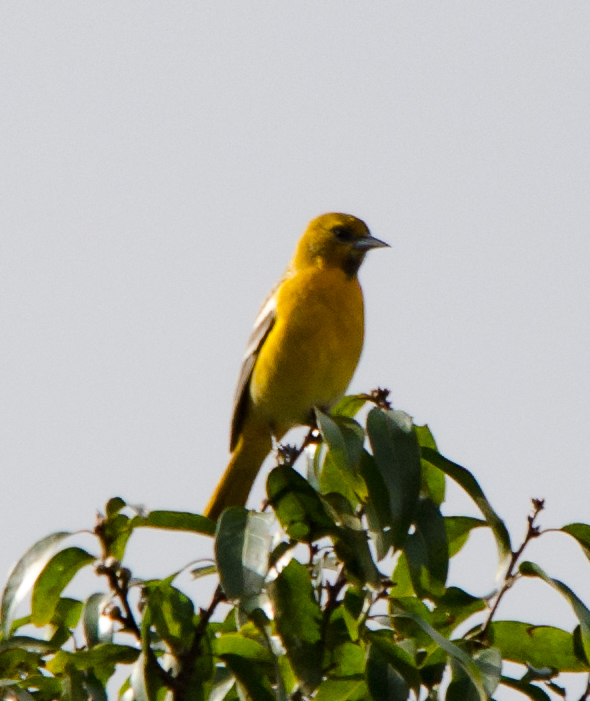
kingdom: Animalia
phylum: Chordata
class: Aves
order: Passeriformes
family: Icteridae
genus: Icterus
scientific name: Icterus galbula
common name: Baltimore oriole
